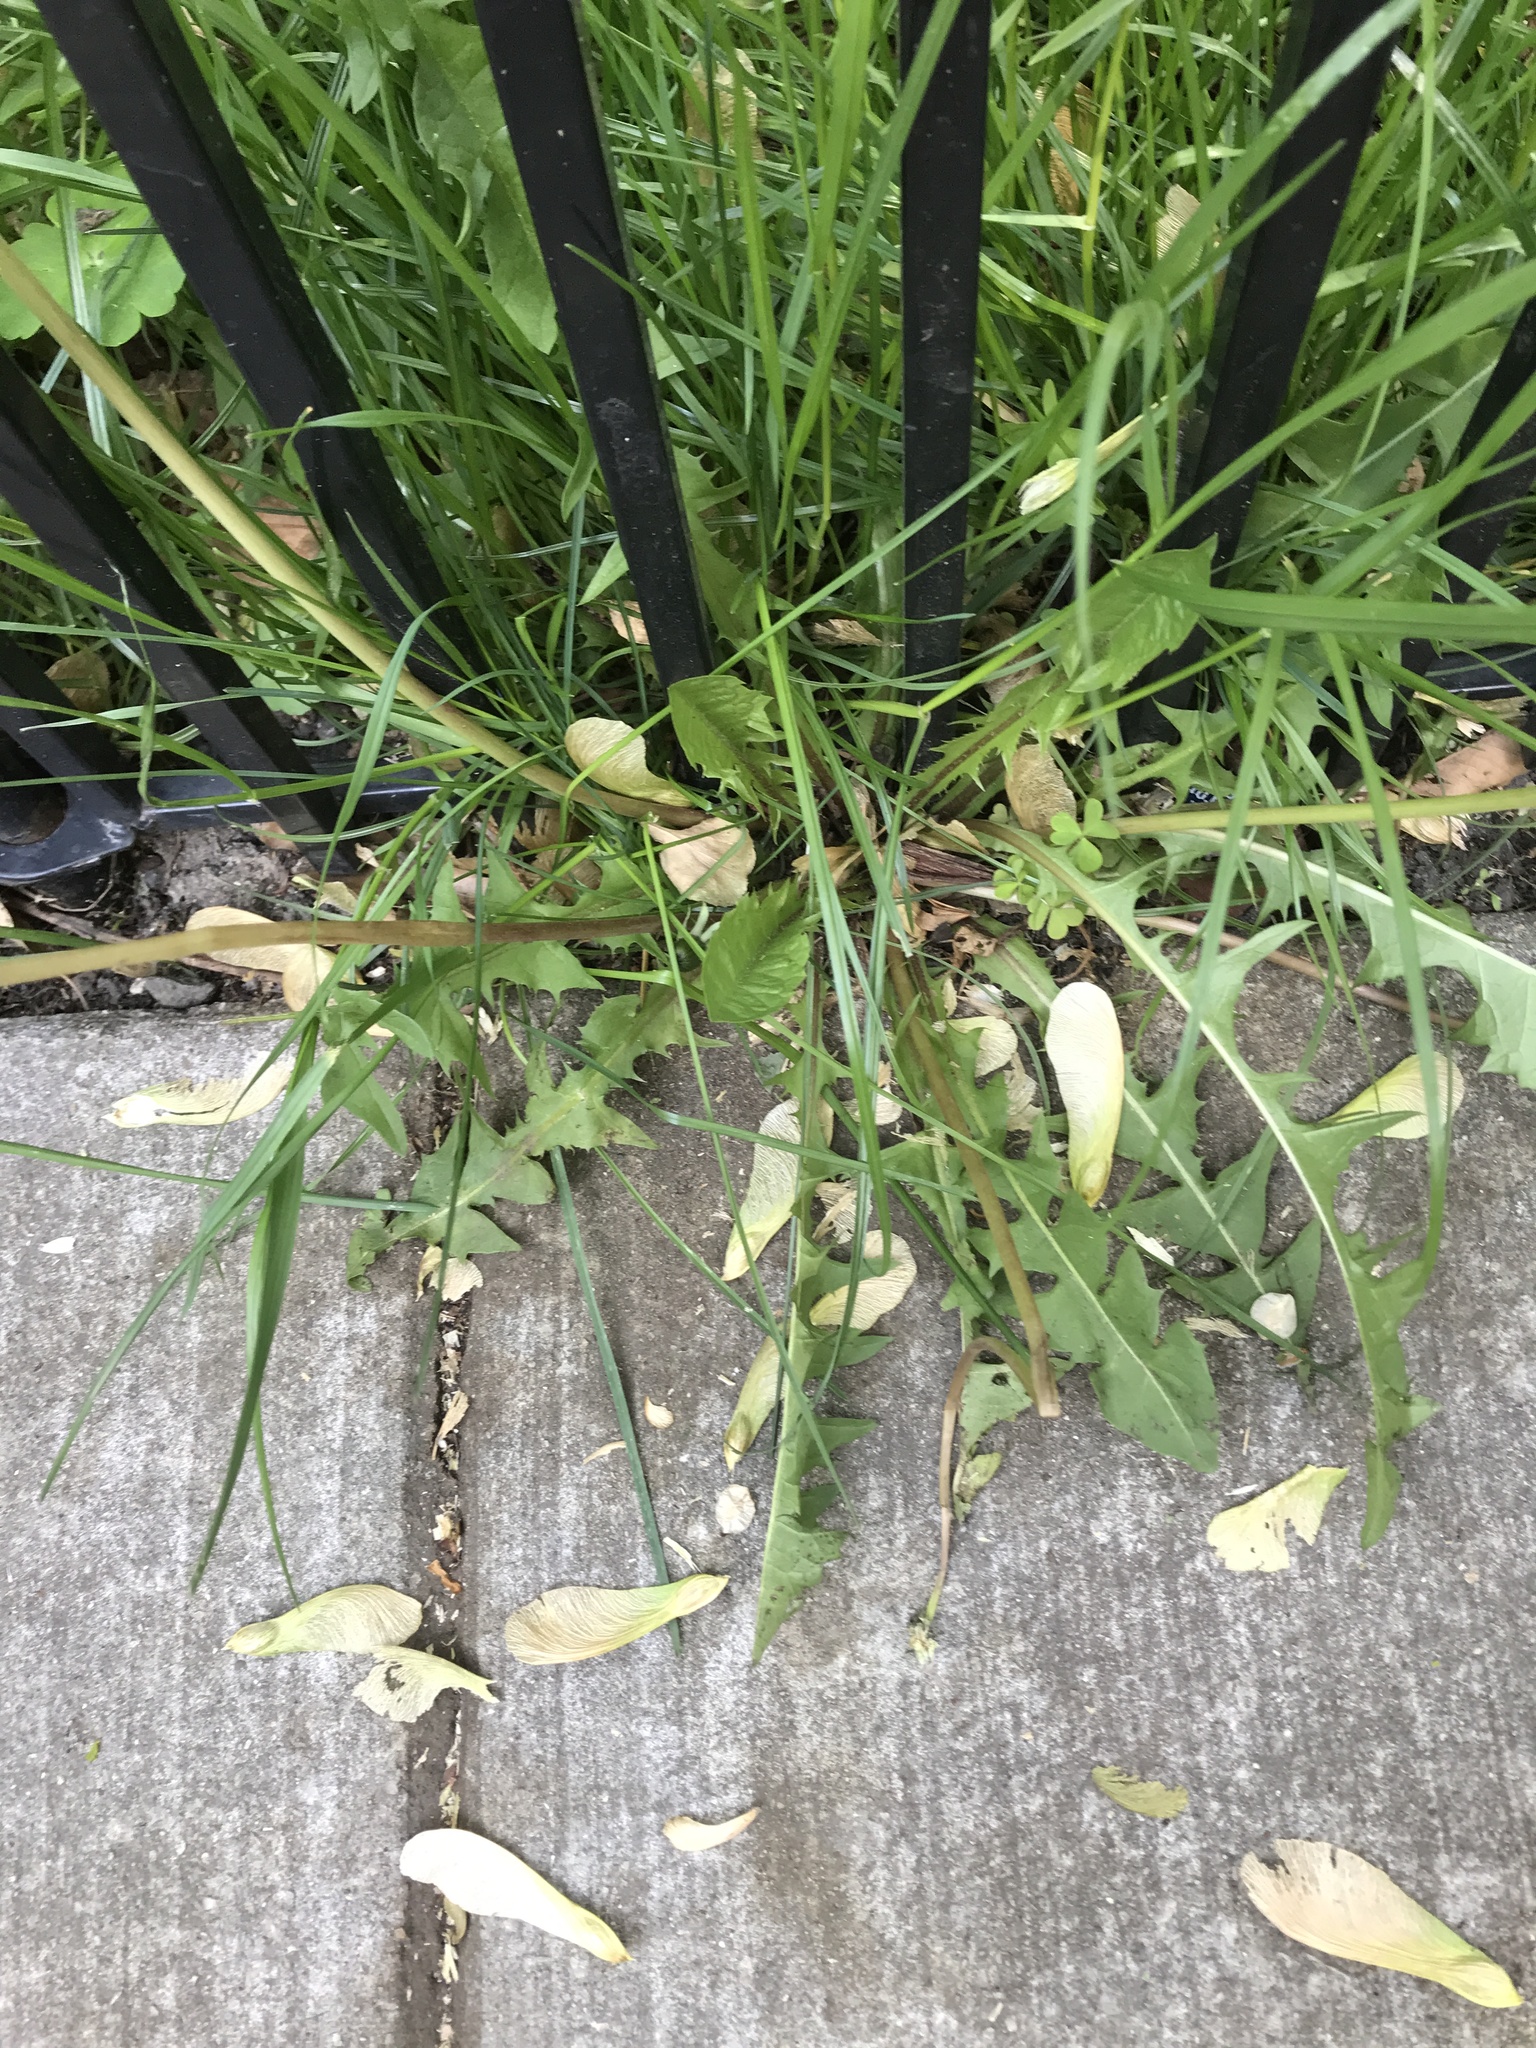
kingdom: Plantae
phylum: Tracheophyta
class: Magnoliopsida
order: Asterales
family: Asteraceae
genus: Taraxacum
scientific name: Taraxacum officinale
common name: Common dandelion
